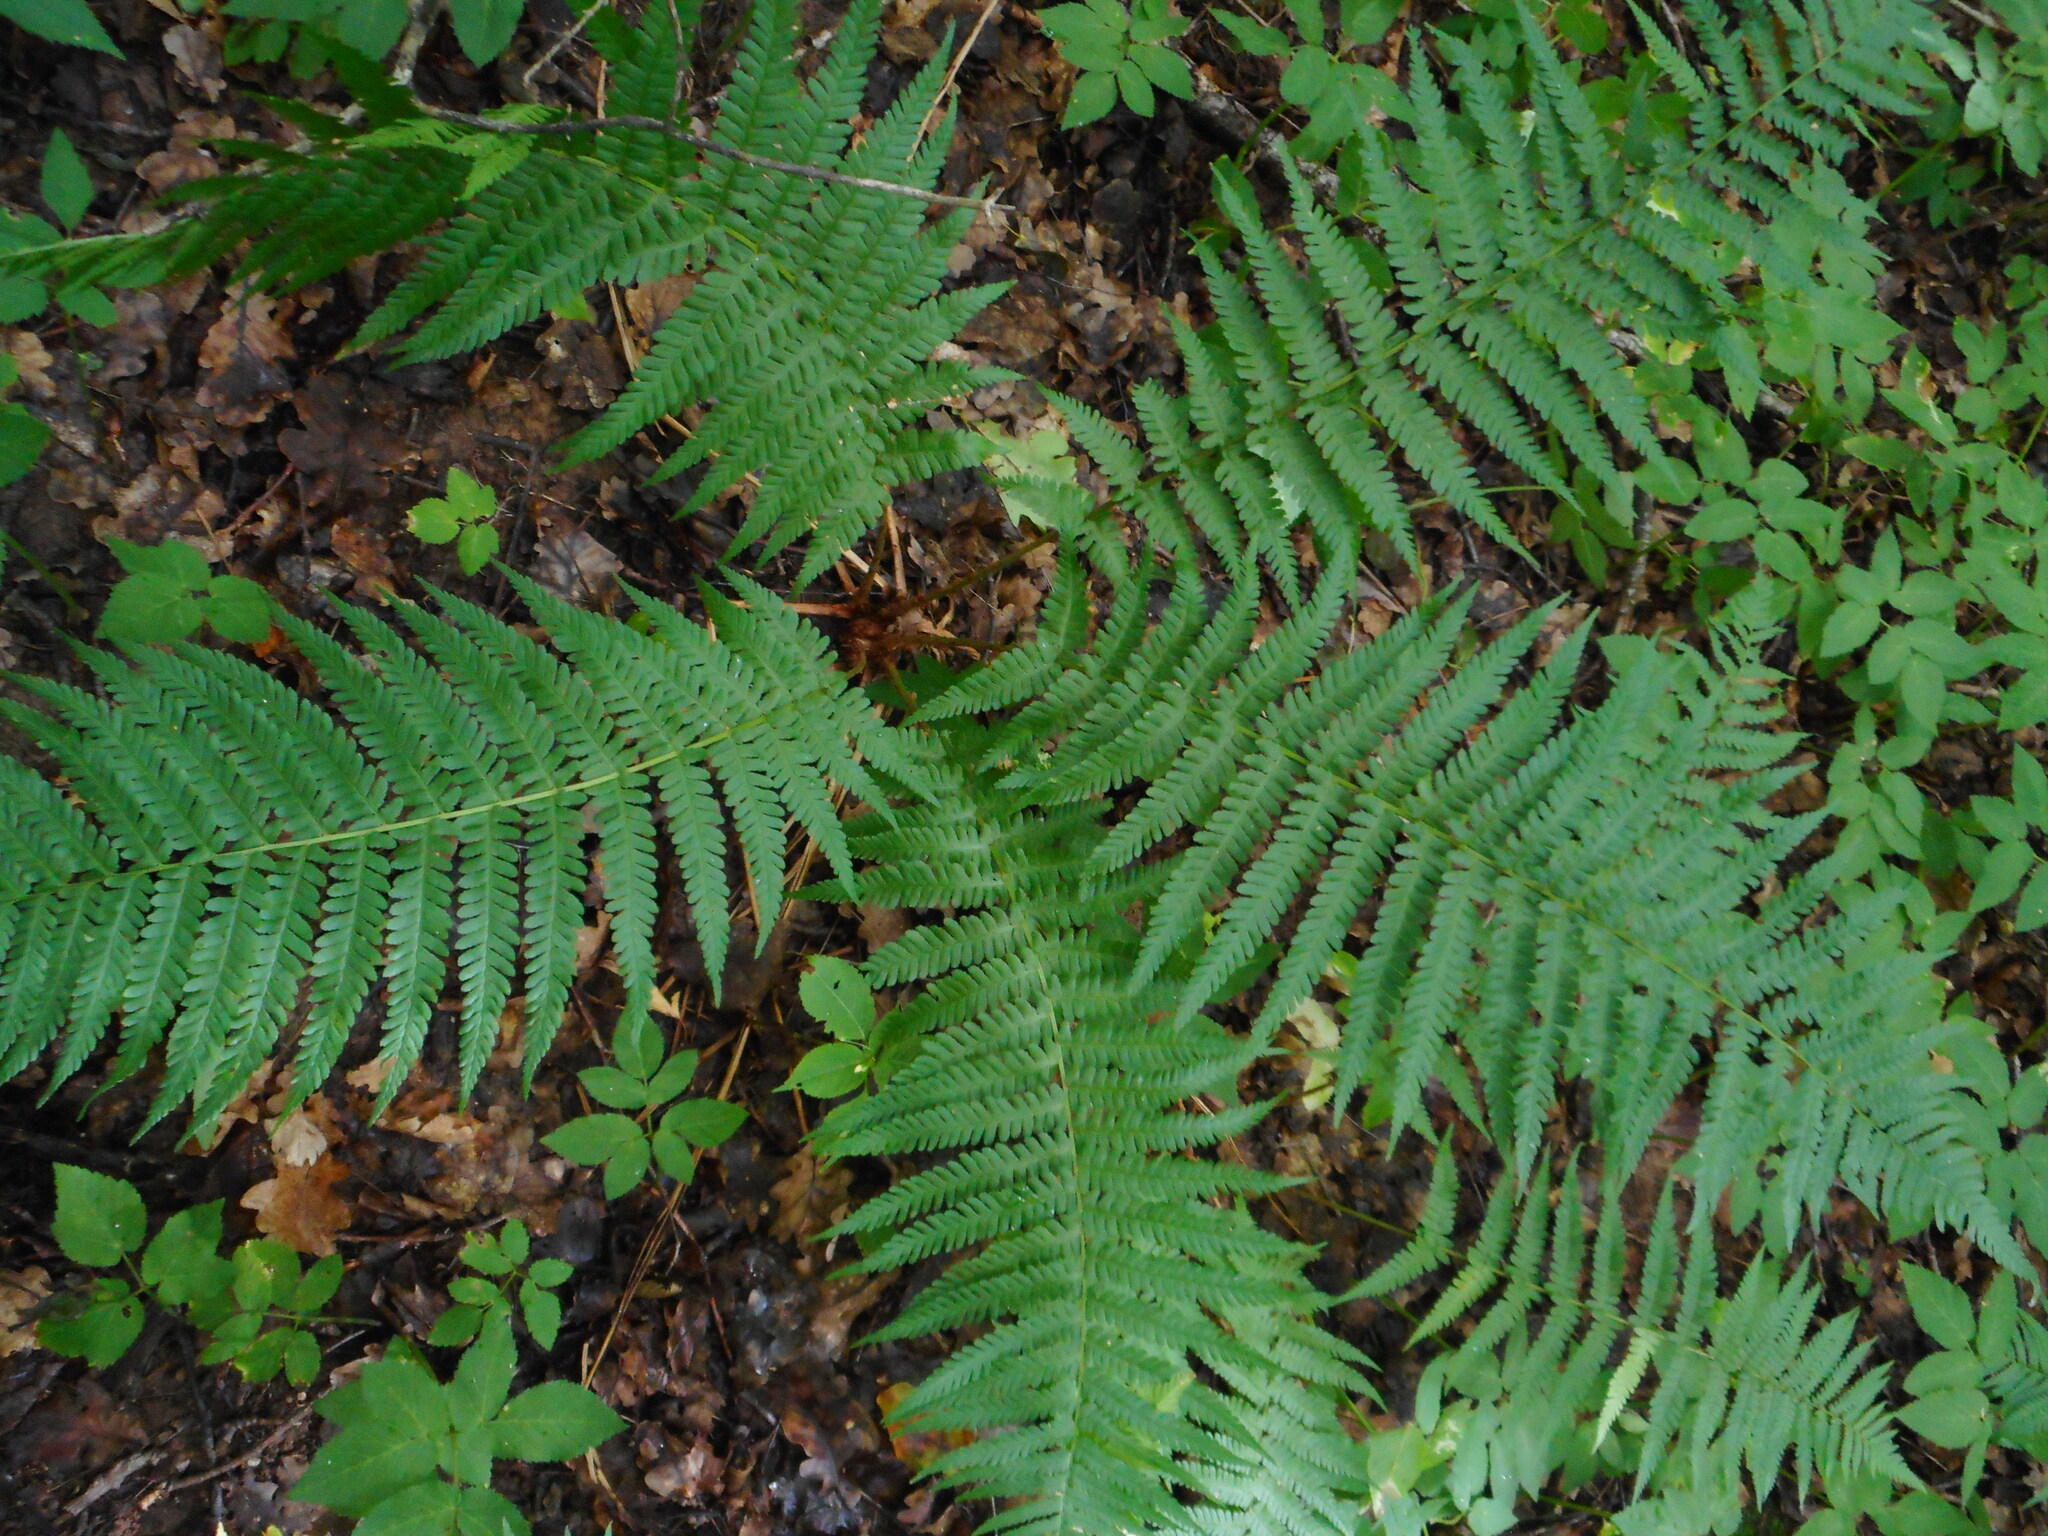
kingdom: Plantae
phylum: Tracheophyta
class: Polypodiopsida
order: Polypodiales
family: Dryopteridaceae
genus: Dryopteris
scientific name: Dryopteris filix-mas
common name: Male fern
